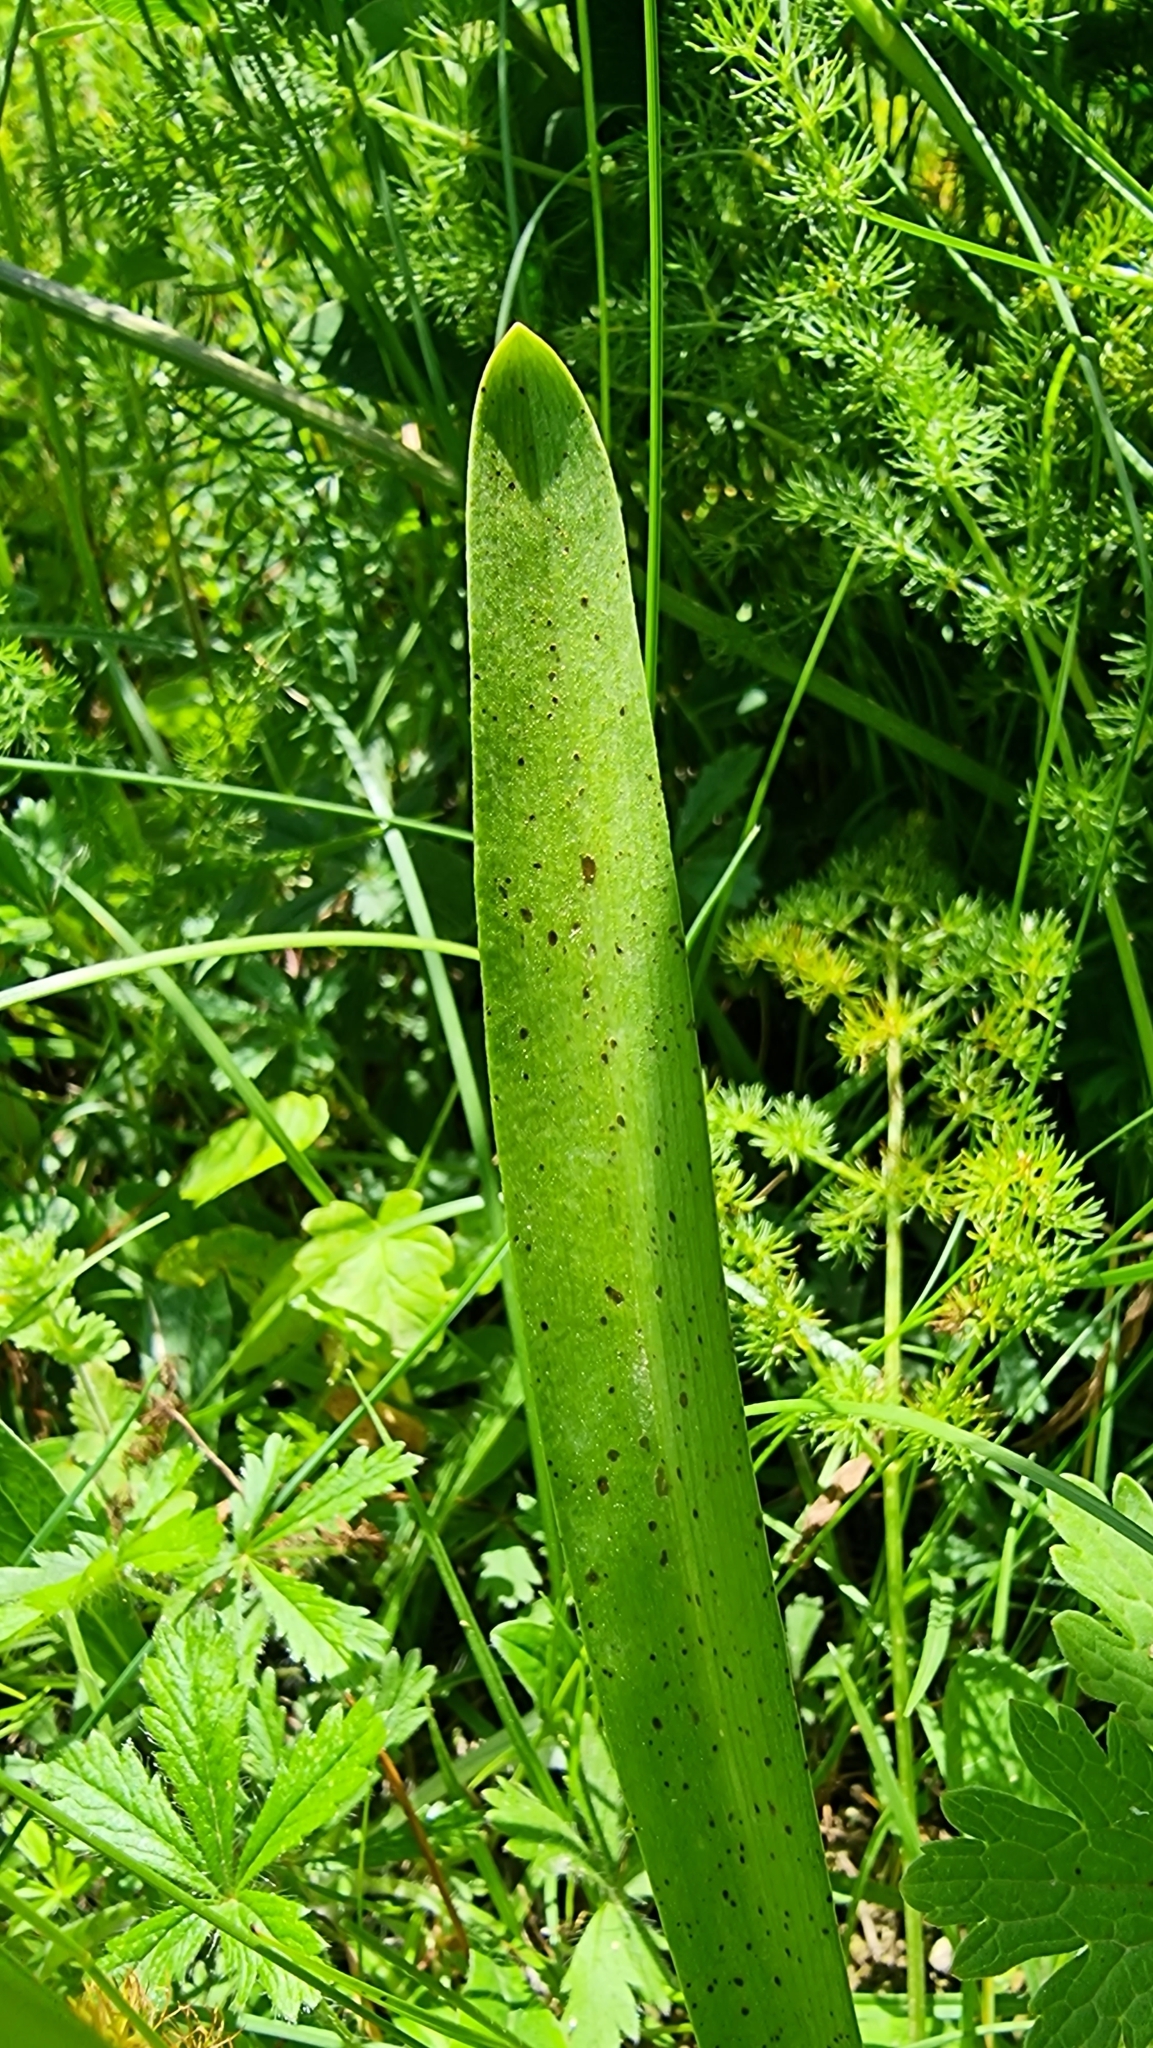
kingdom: Plantae
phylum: Tracheophyta
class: Liliopsida
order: Asparagales
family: Orchidaceae
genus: Gymnadenia
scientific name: Gymnadenia conopsea
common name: Fragrant orchid
